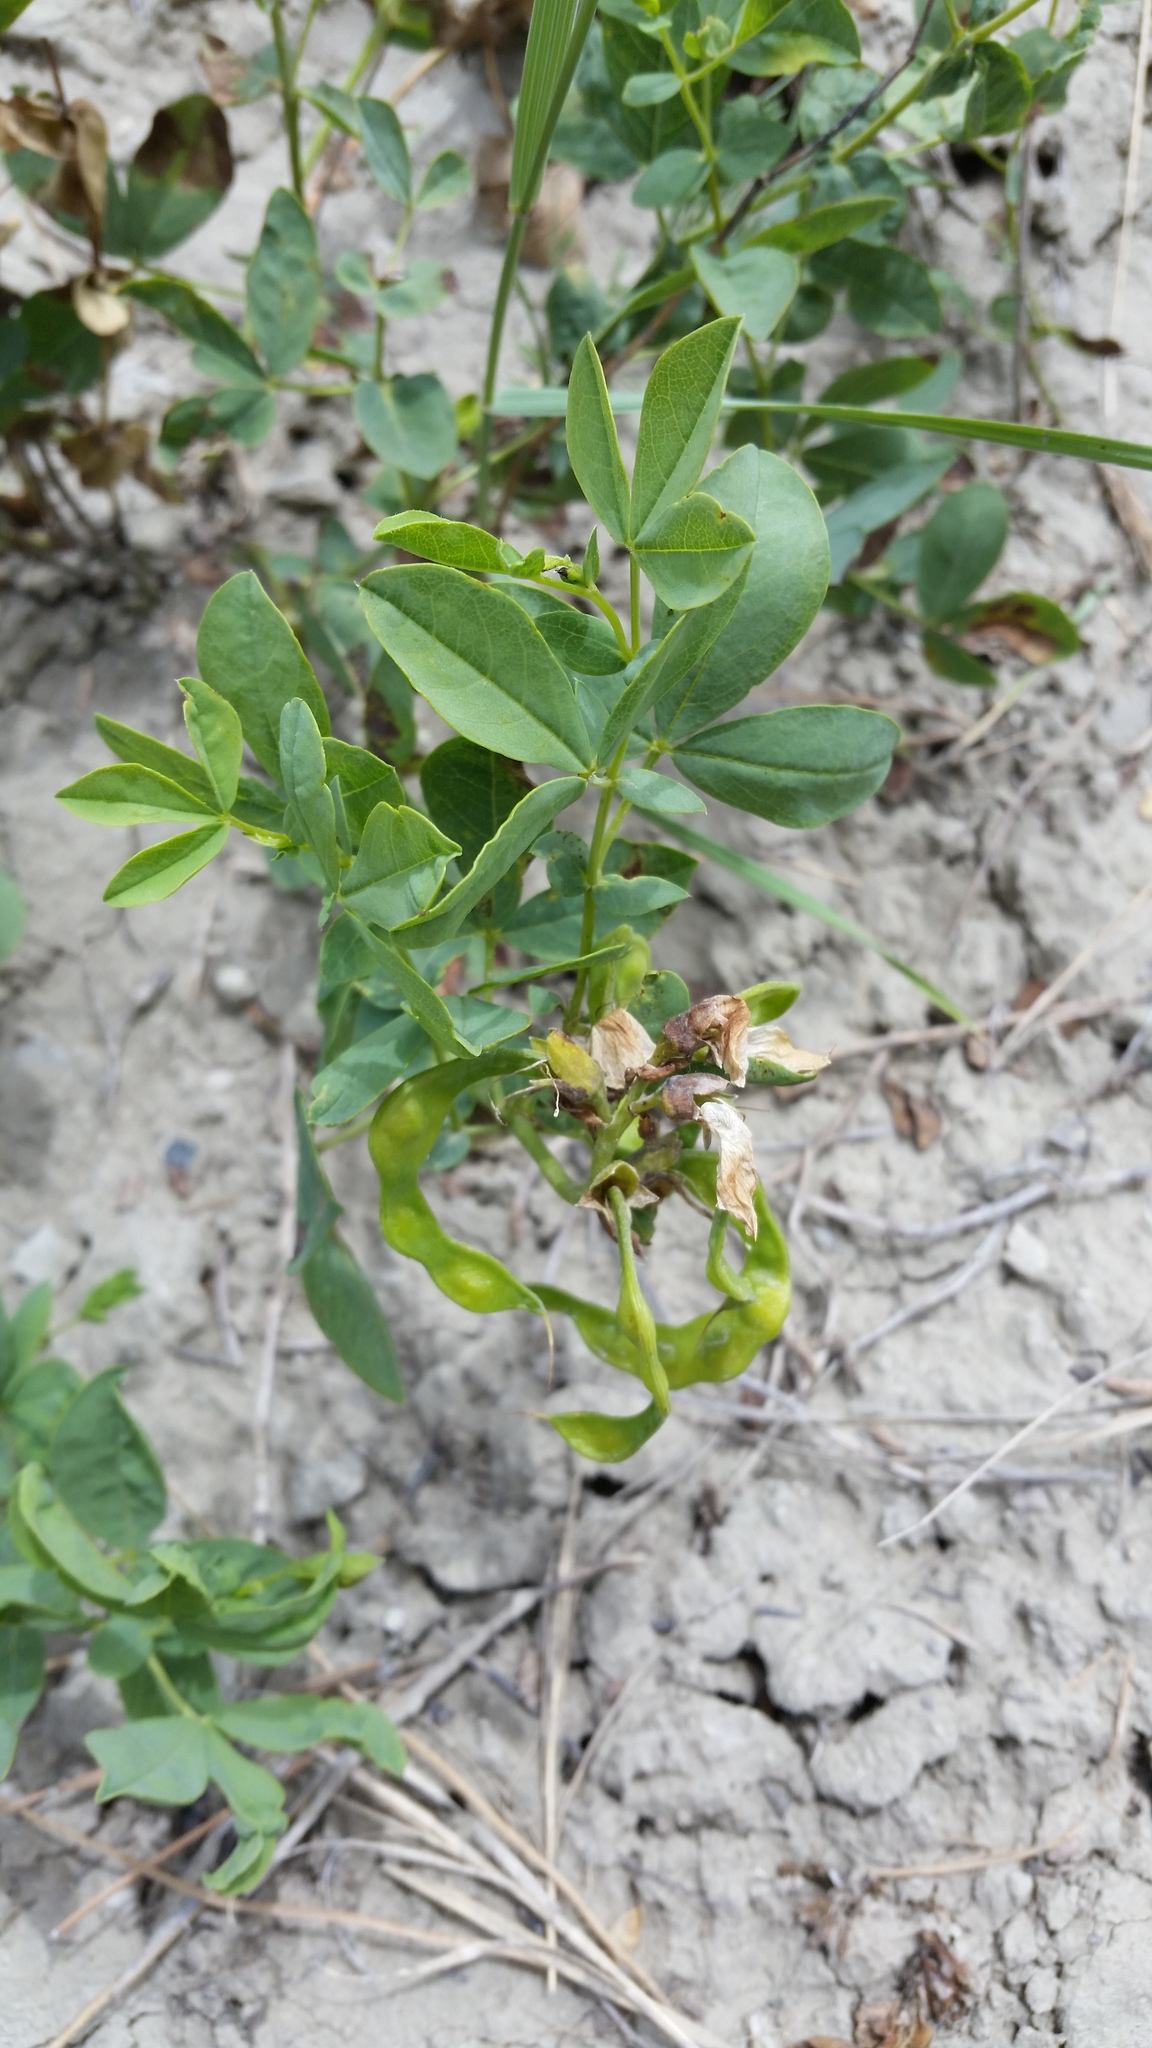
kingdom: Plantae
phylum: Tracheophyta
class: Magnoliopsida
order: Fabales
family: Fabaceae
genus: Thermopsis
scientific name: Thermopsis rhombifolia
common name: Circle-pod-pea
